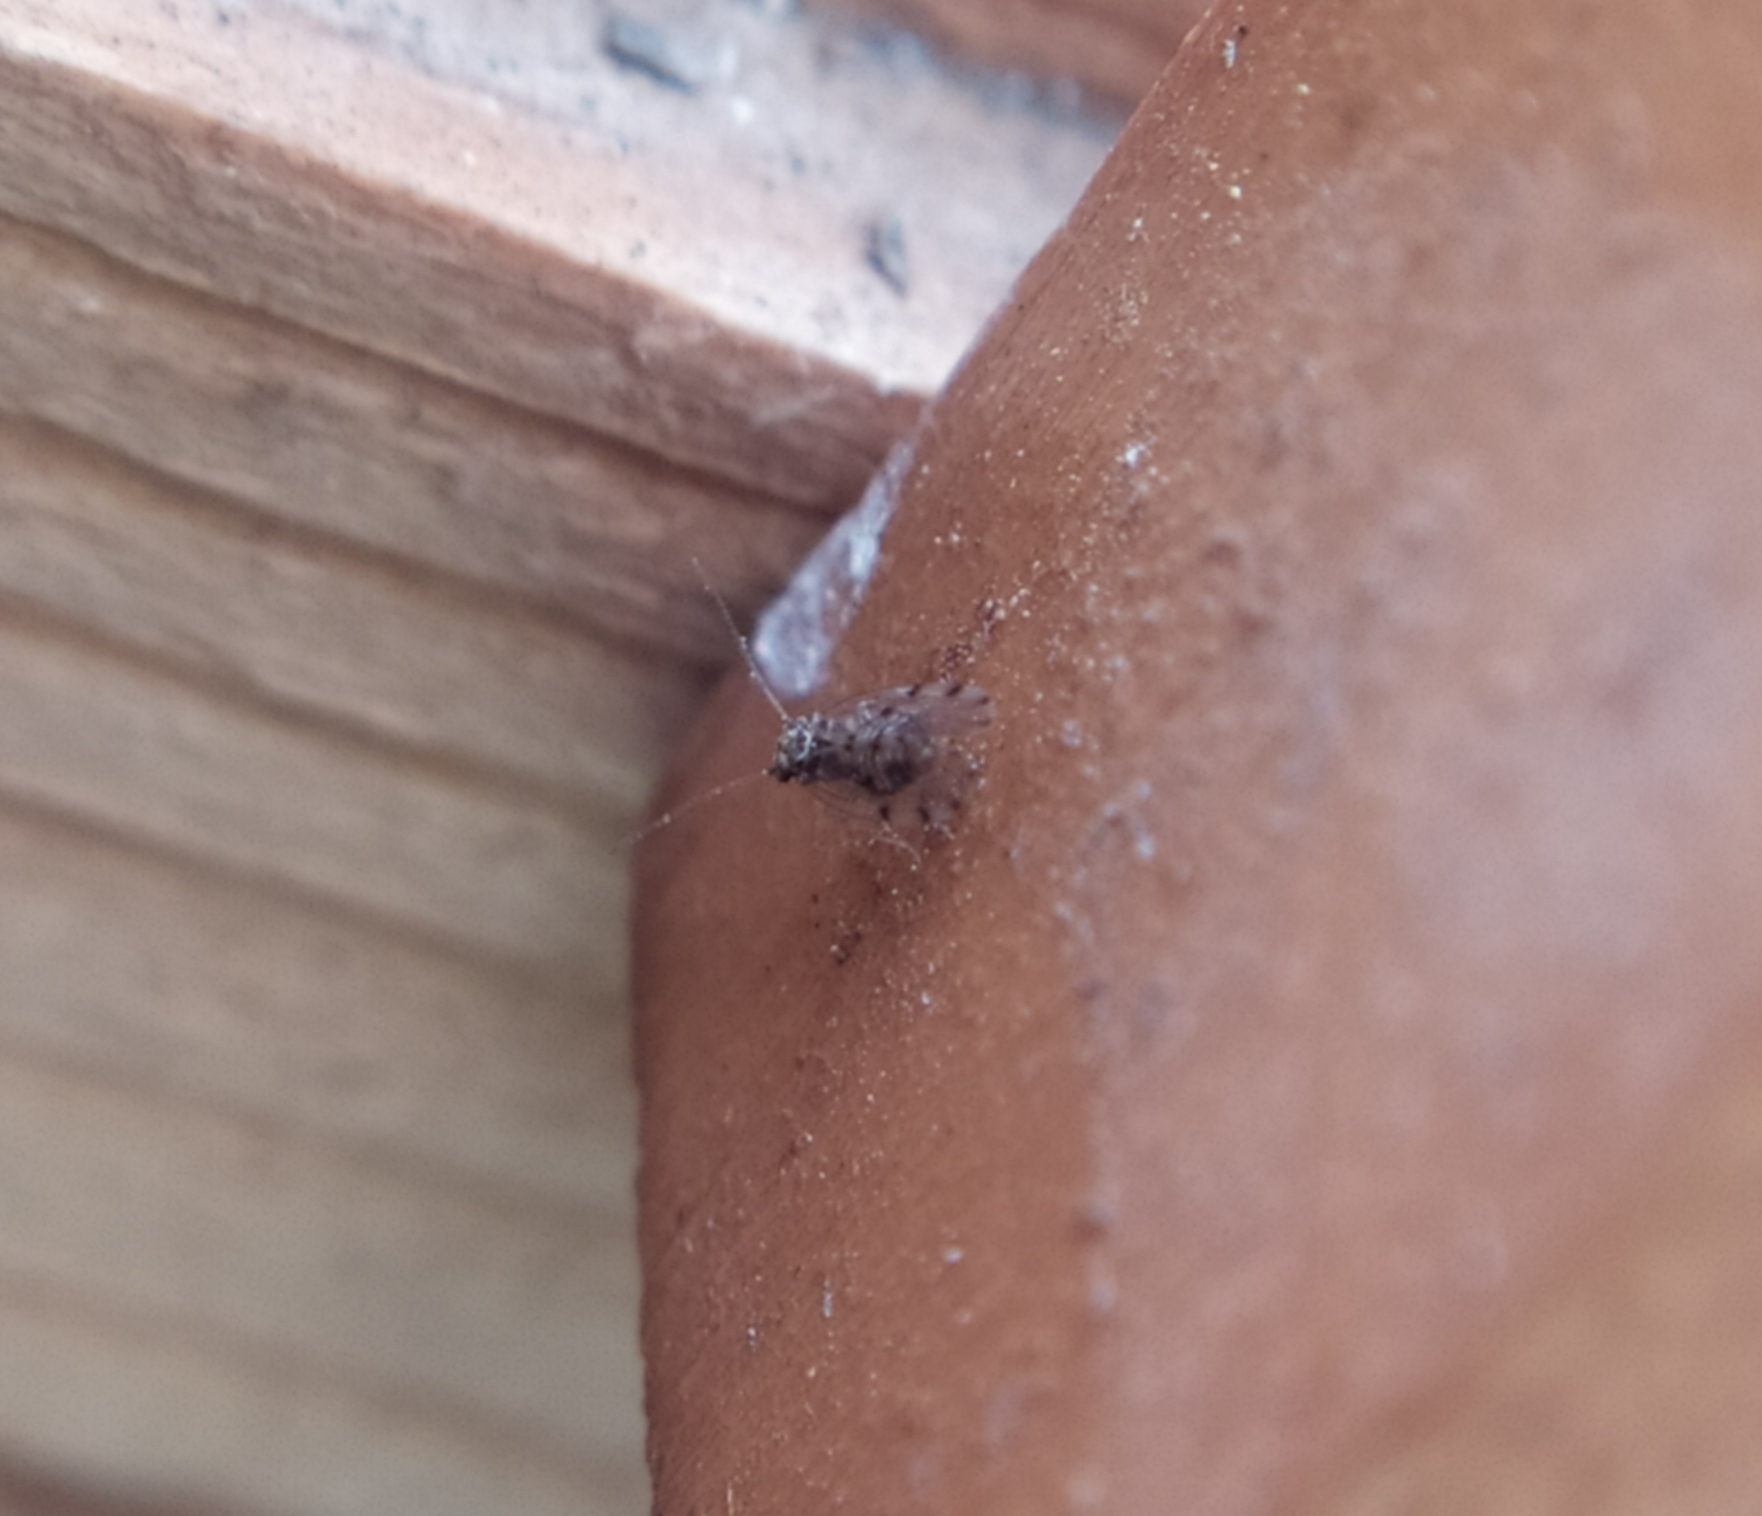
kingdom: Animalia
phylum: Arthropoda
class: Insecta
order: Psocodea
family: Ectopsocidae
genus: Ectopsocus
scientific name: Ectopsocus petersi
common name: Medium-sized bark louse
